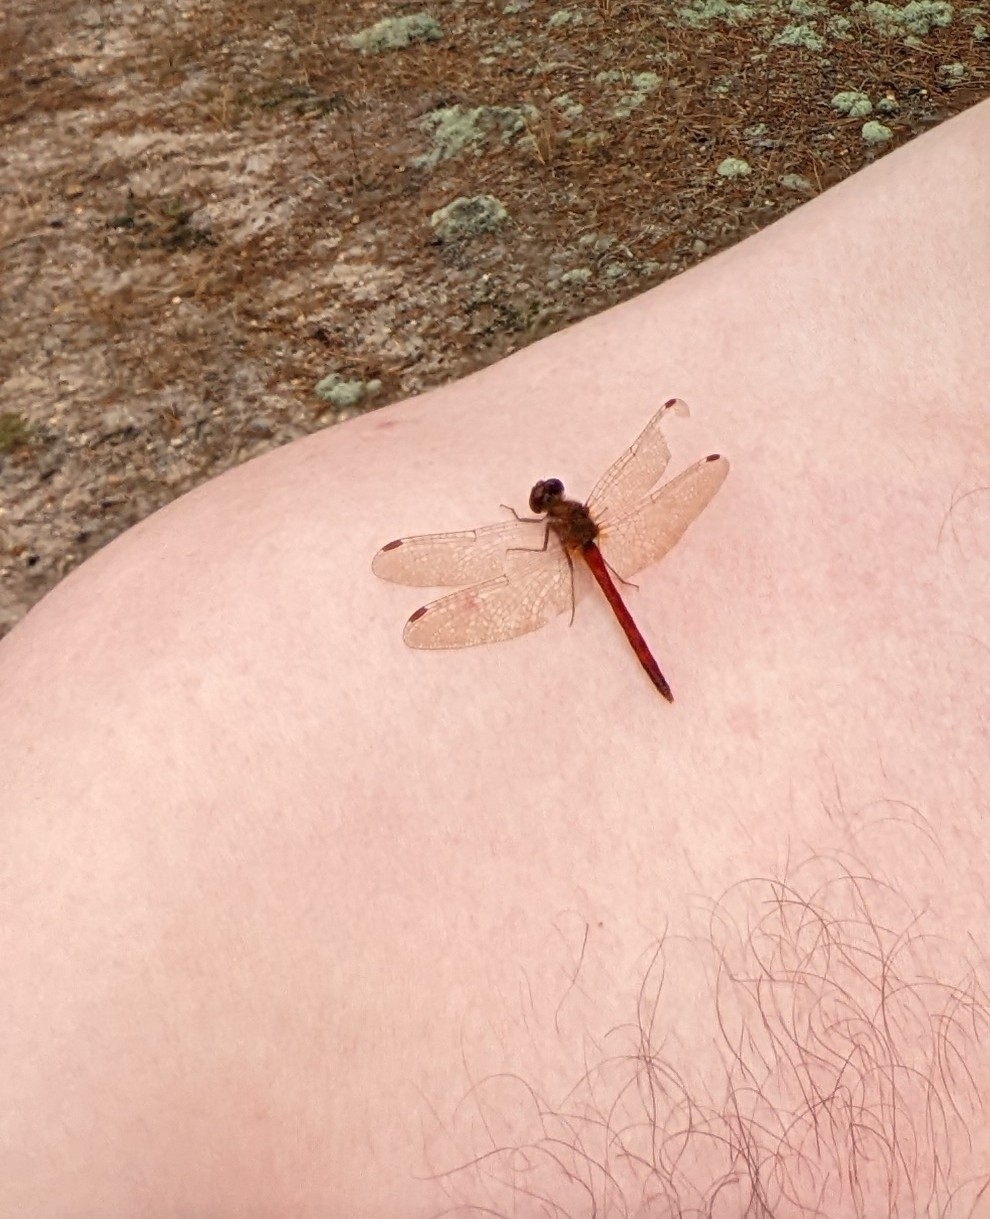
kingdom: Animalia
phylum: Arthropoda
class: Insecta
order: Odonata
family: Libellulidae
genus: Sympetrum
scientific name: Sympetrum vicinum
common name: Autumn meadowhawk
